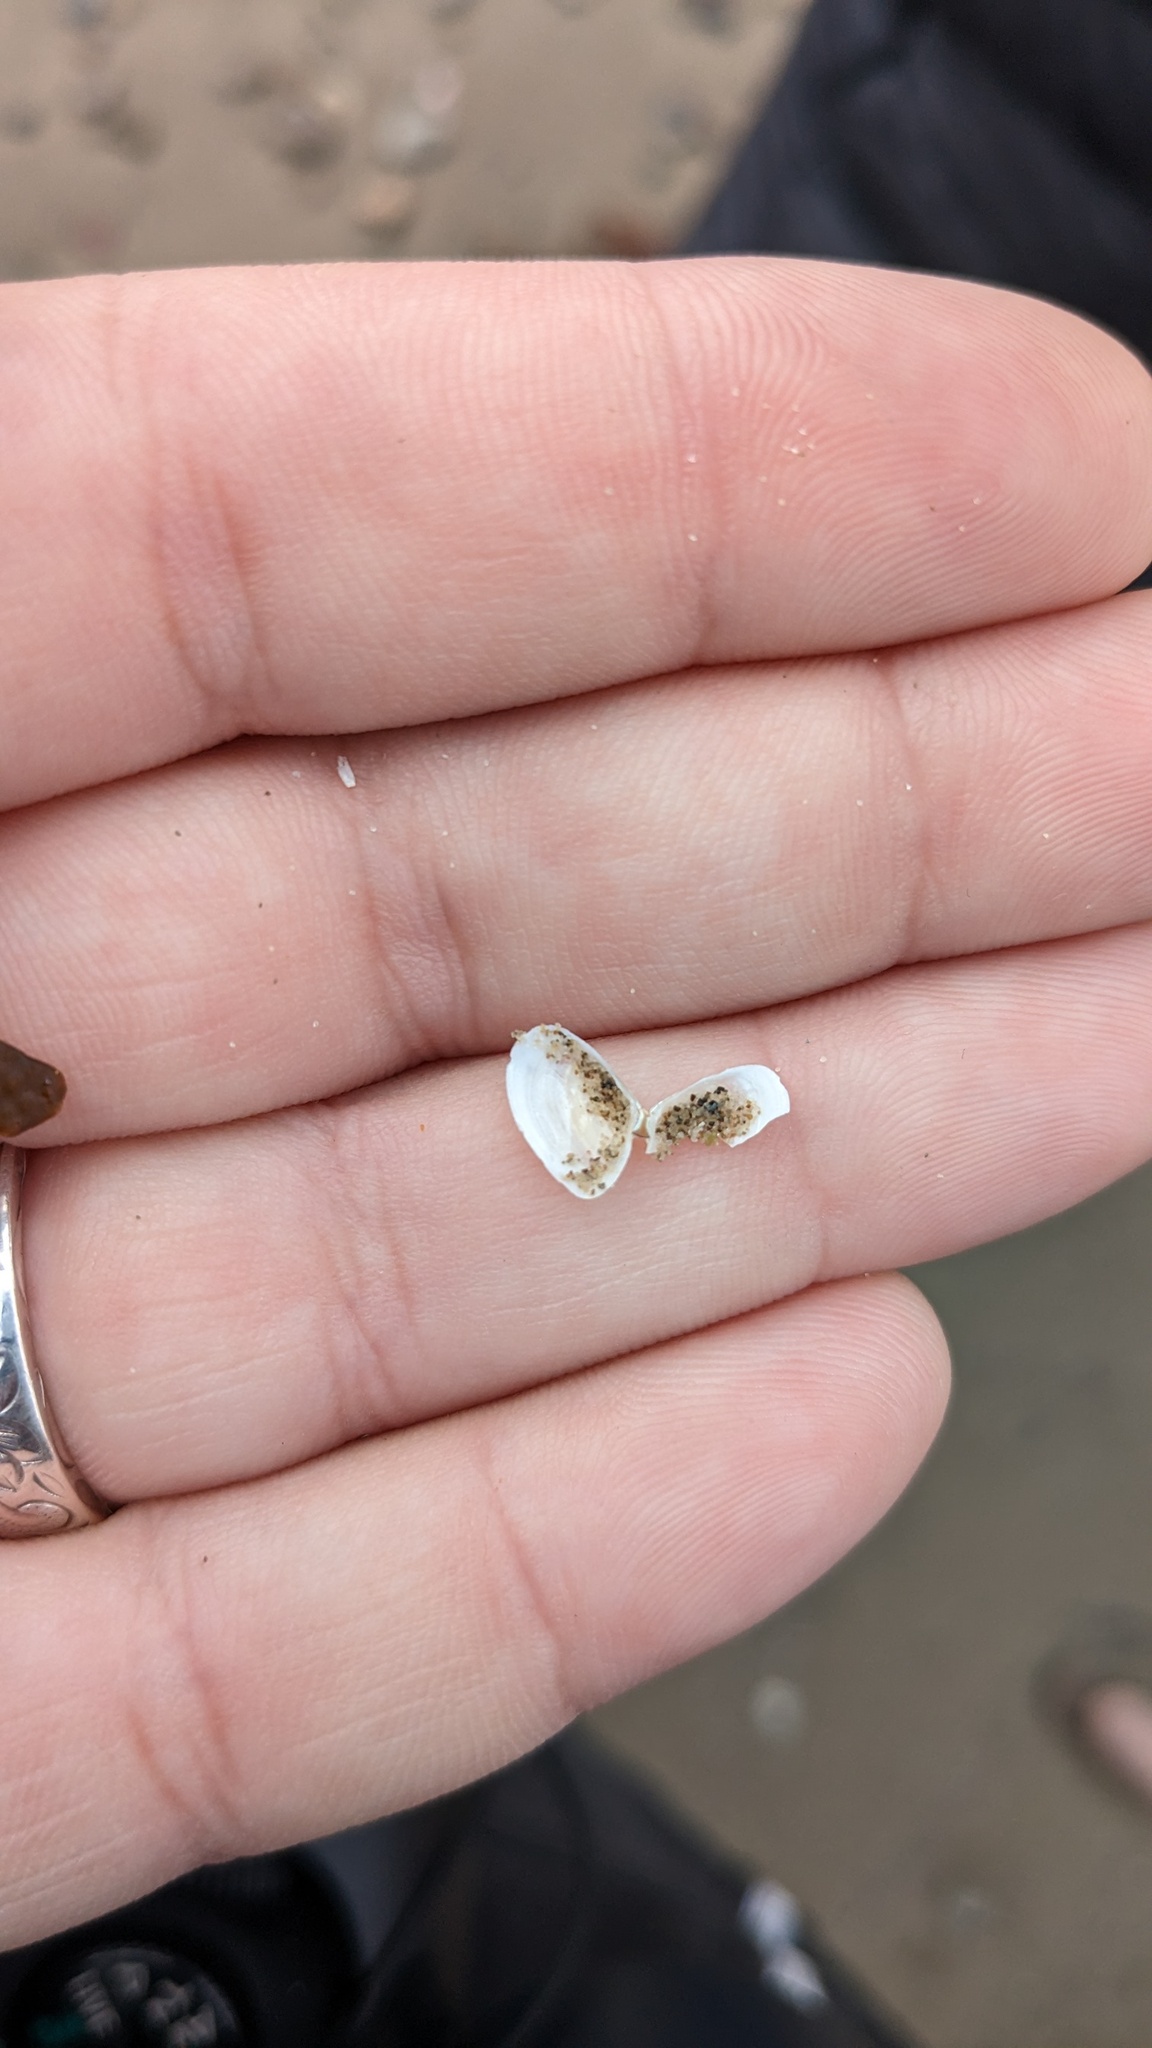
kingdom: Animalia
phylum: Mollusca
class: Bivalvia
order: Cardiida
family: Tellinidae
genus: Ameritella
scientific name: Ameritella agilis
